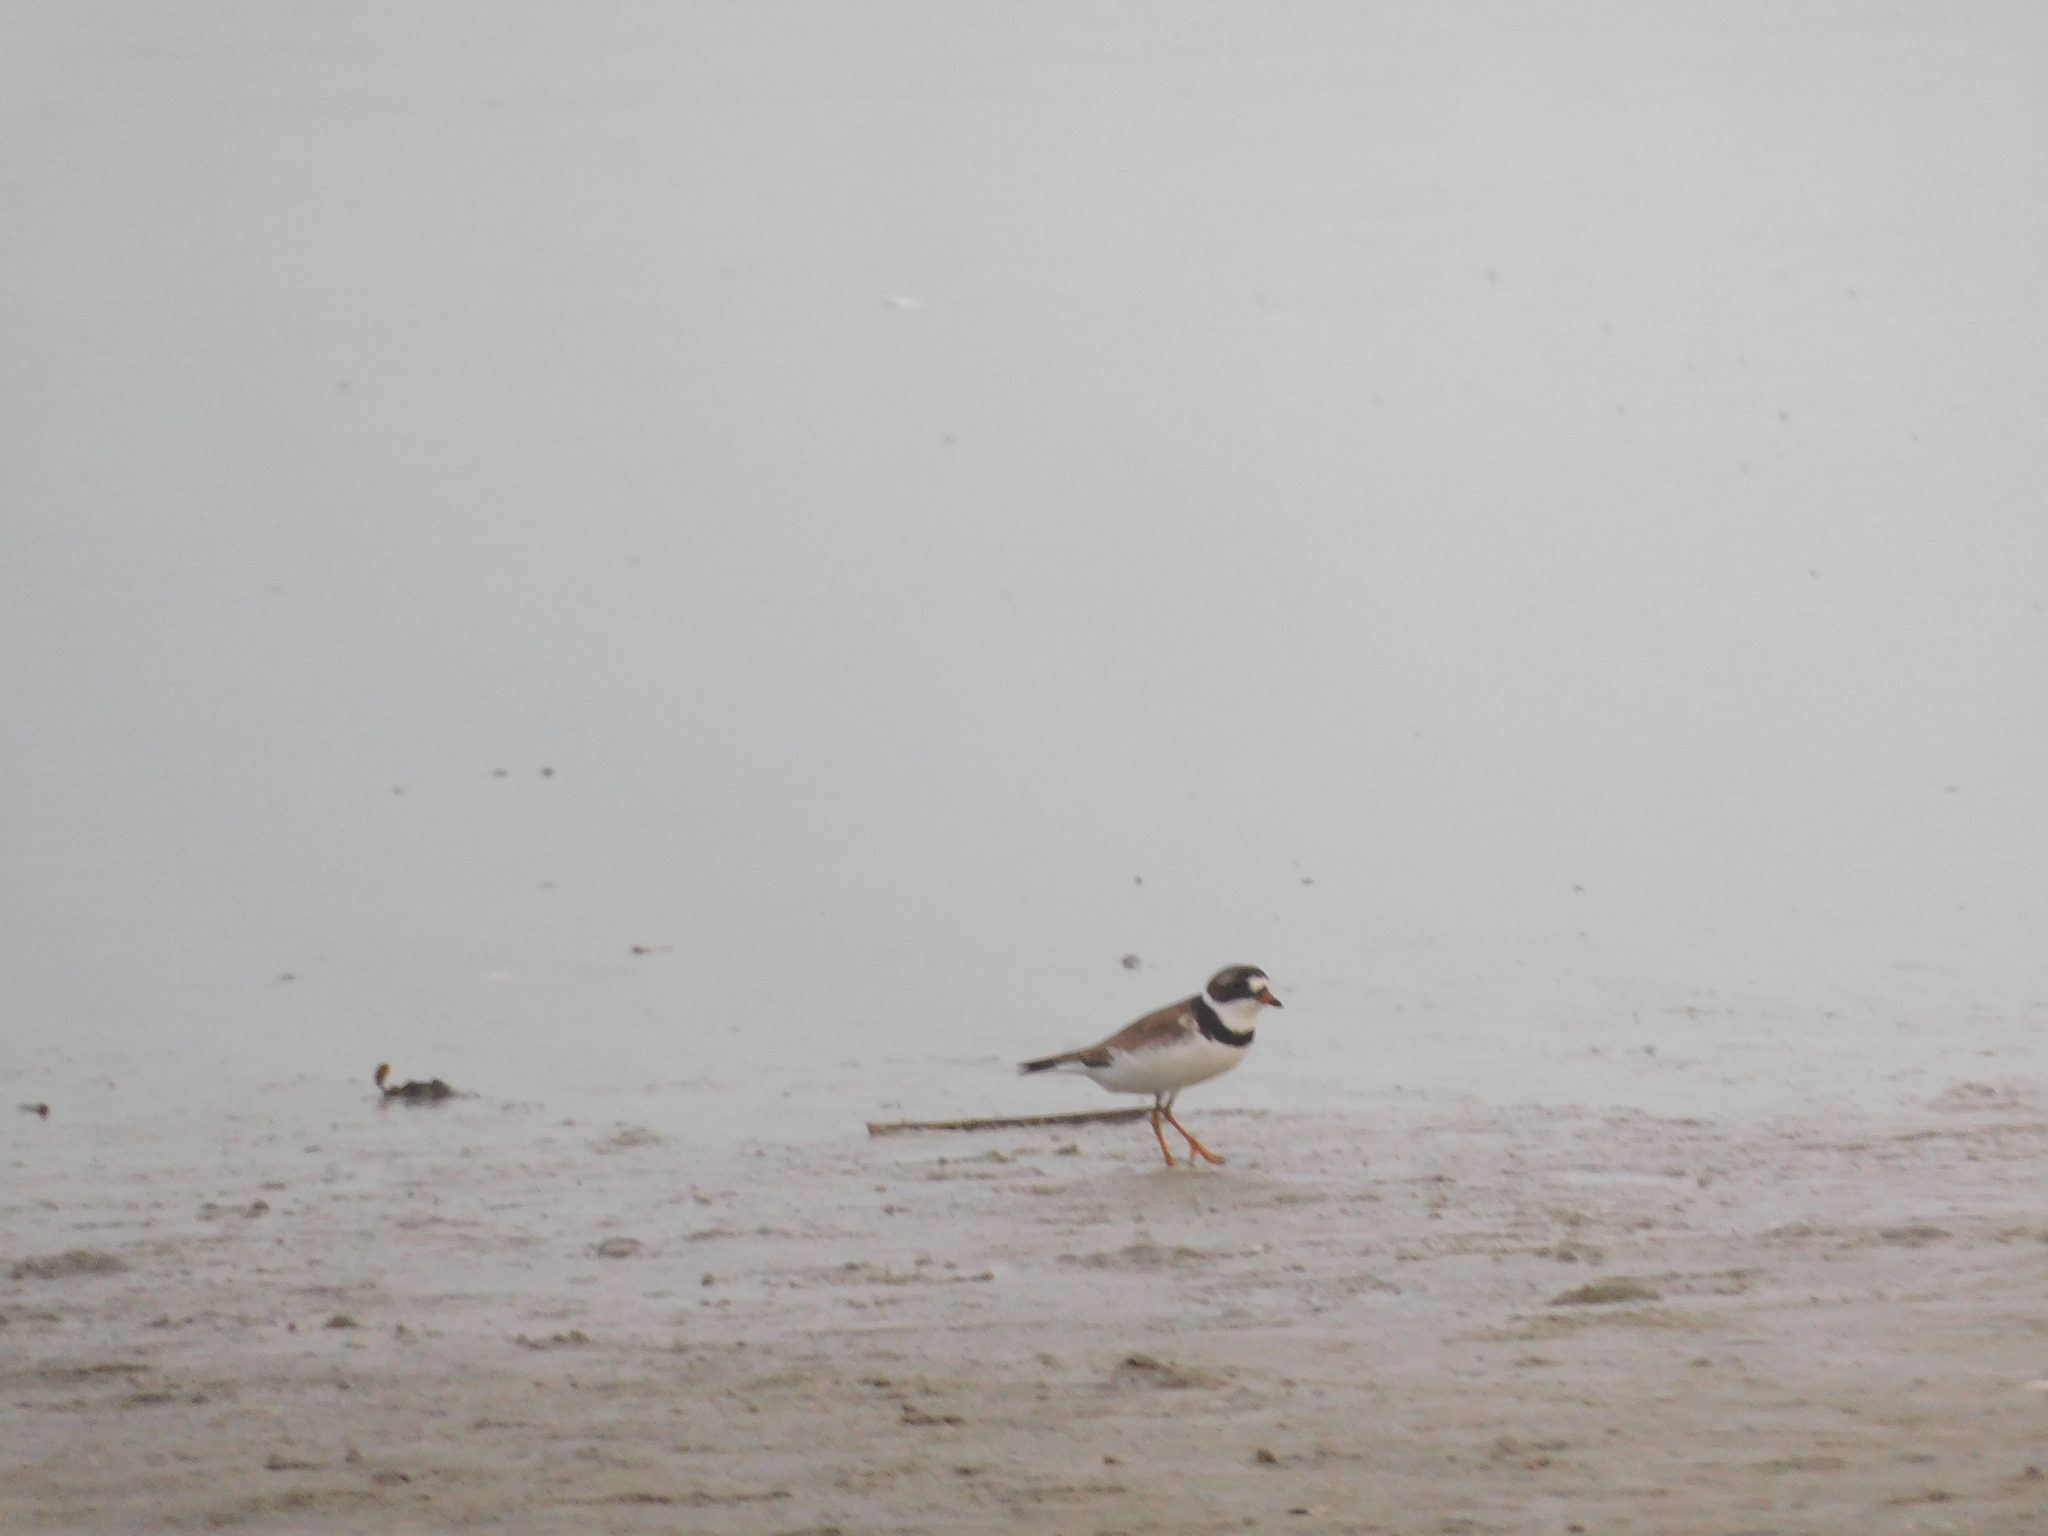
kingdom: Animalia
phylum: Chordata
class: Aves
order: Charadriiformes
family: Charadriidae
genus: Charadrius
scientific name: Charadrius semipalmatus
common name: Semipalmated plover
